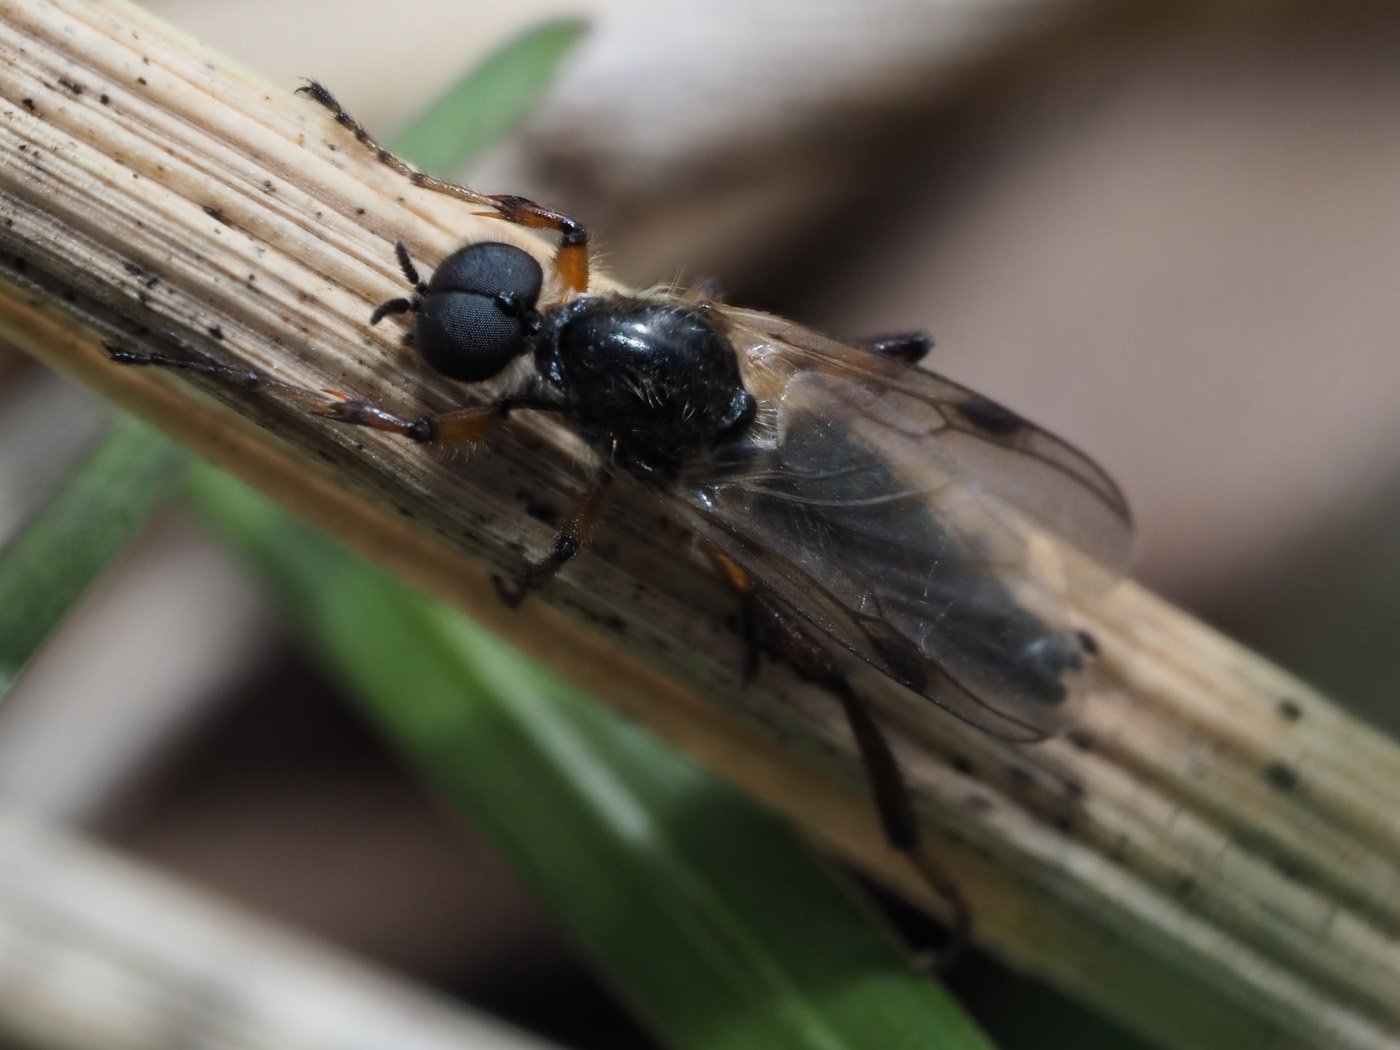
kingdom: Animalia
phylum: Arthropoda
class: Insecta
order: Diptera
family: Bibionidae
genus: Bibio
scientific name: Bibio articulatus
